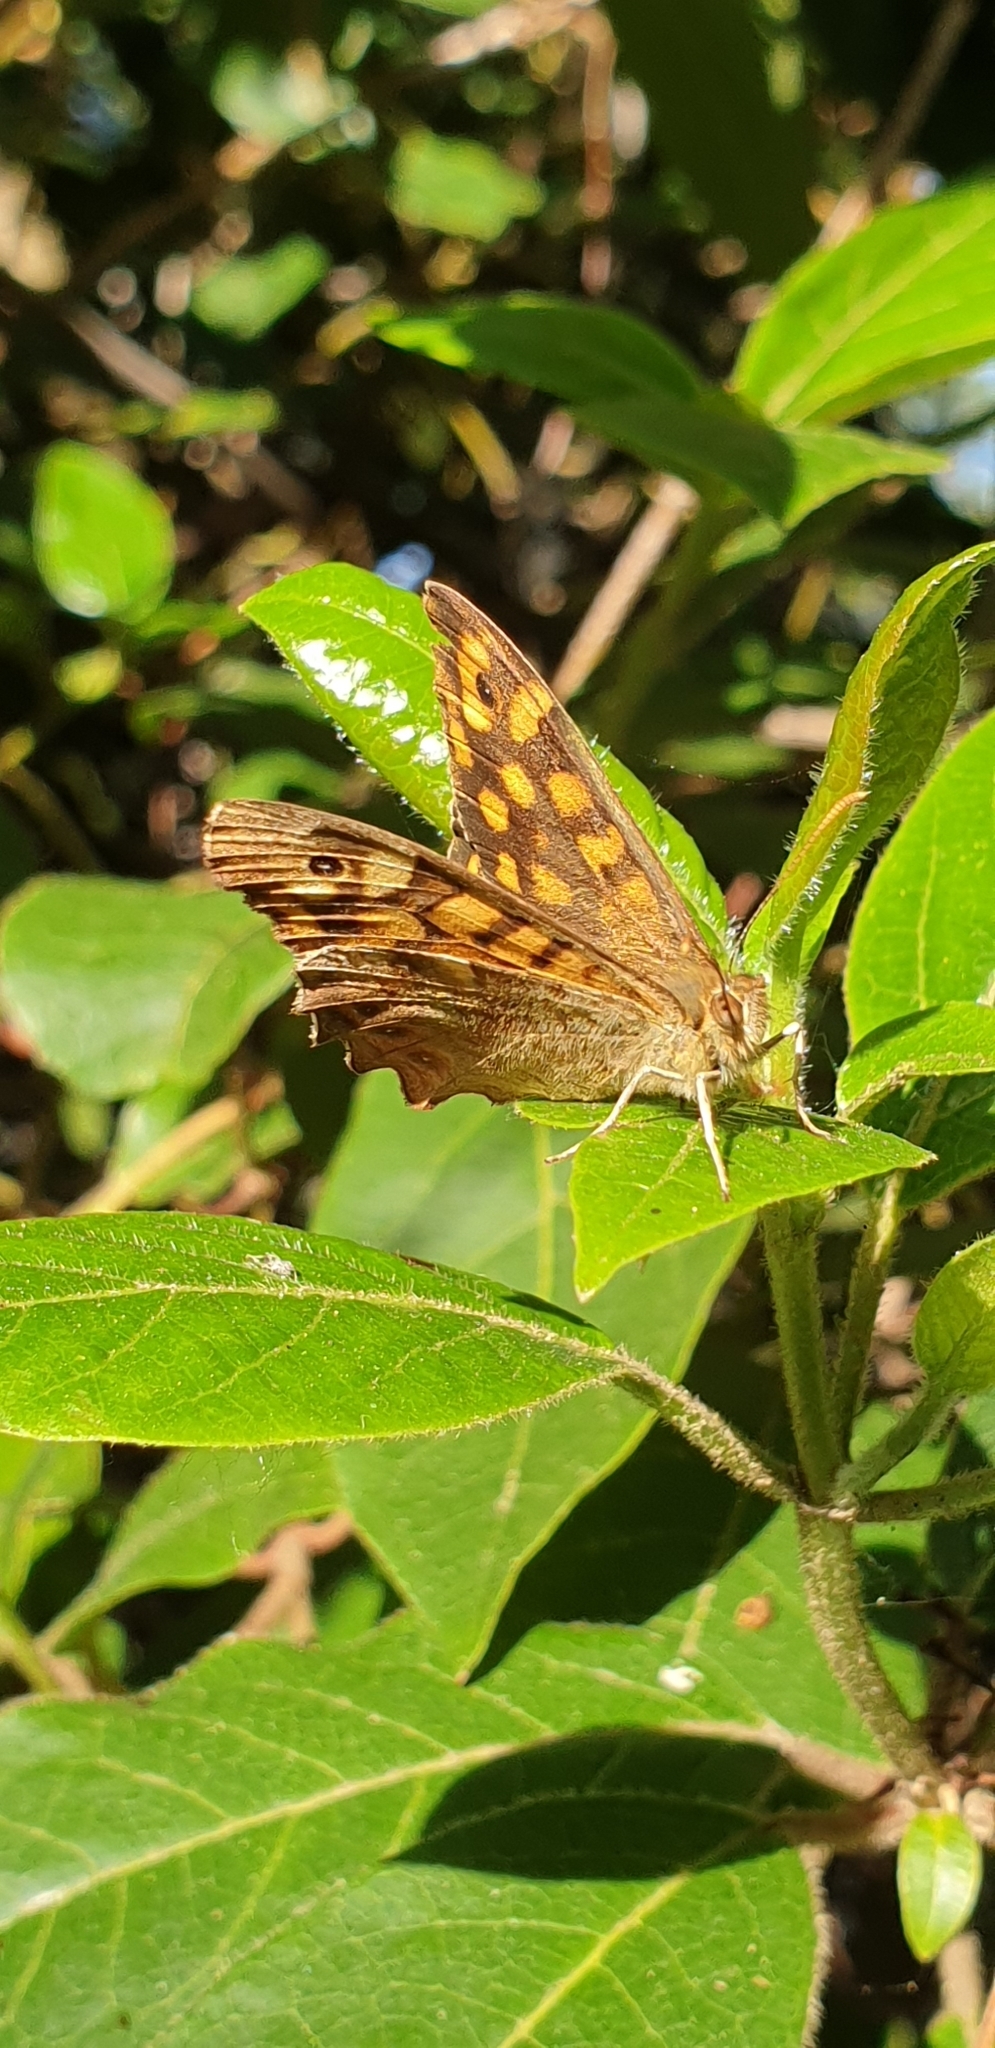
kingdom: Animalia
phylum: Arthropoda
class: Insecta
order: Lepidoptera
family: Nymphalidae
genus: Pararge
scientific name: Pararge aegeria
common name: Speckled wood
